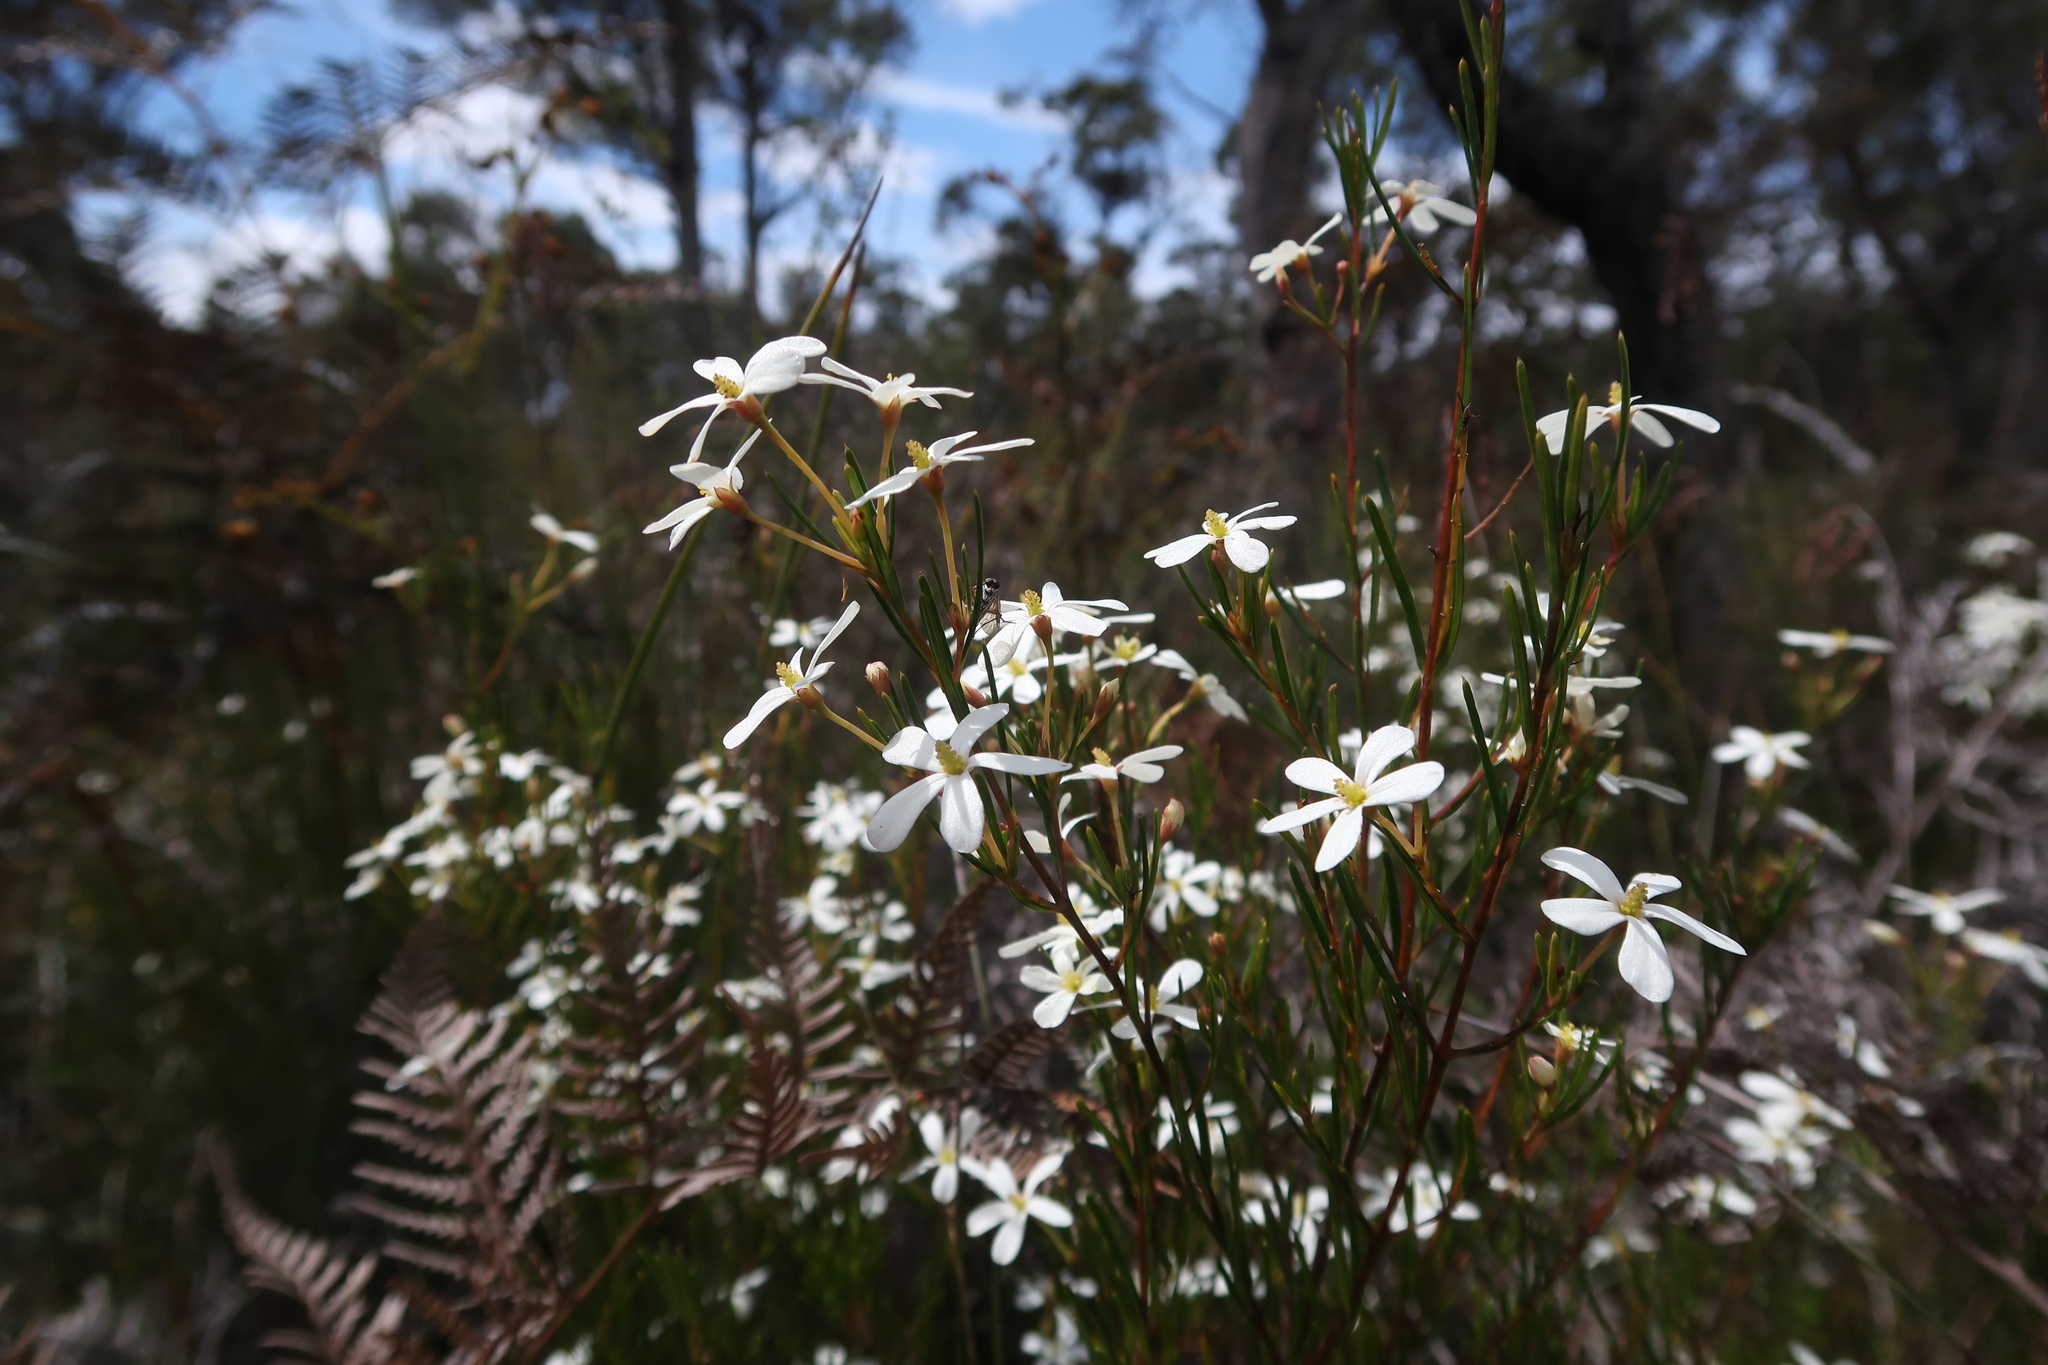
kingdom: Plantae
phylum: Tracheophyta
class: Magnoliopsida
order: Malpighiales
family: Euphorbiaceae
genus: Ricinocarpos
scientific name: Ricinocarpos pinifolius
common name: Weddingbush
